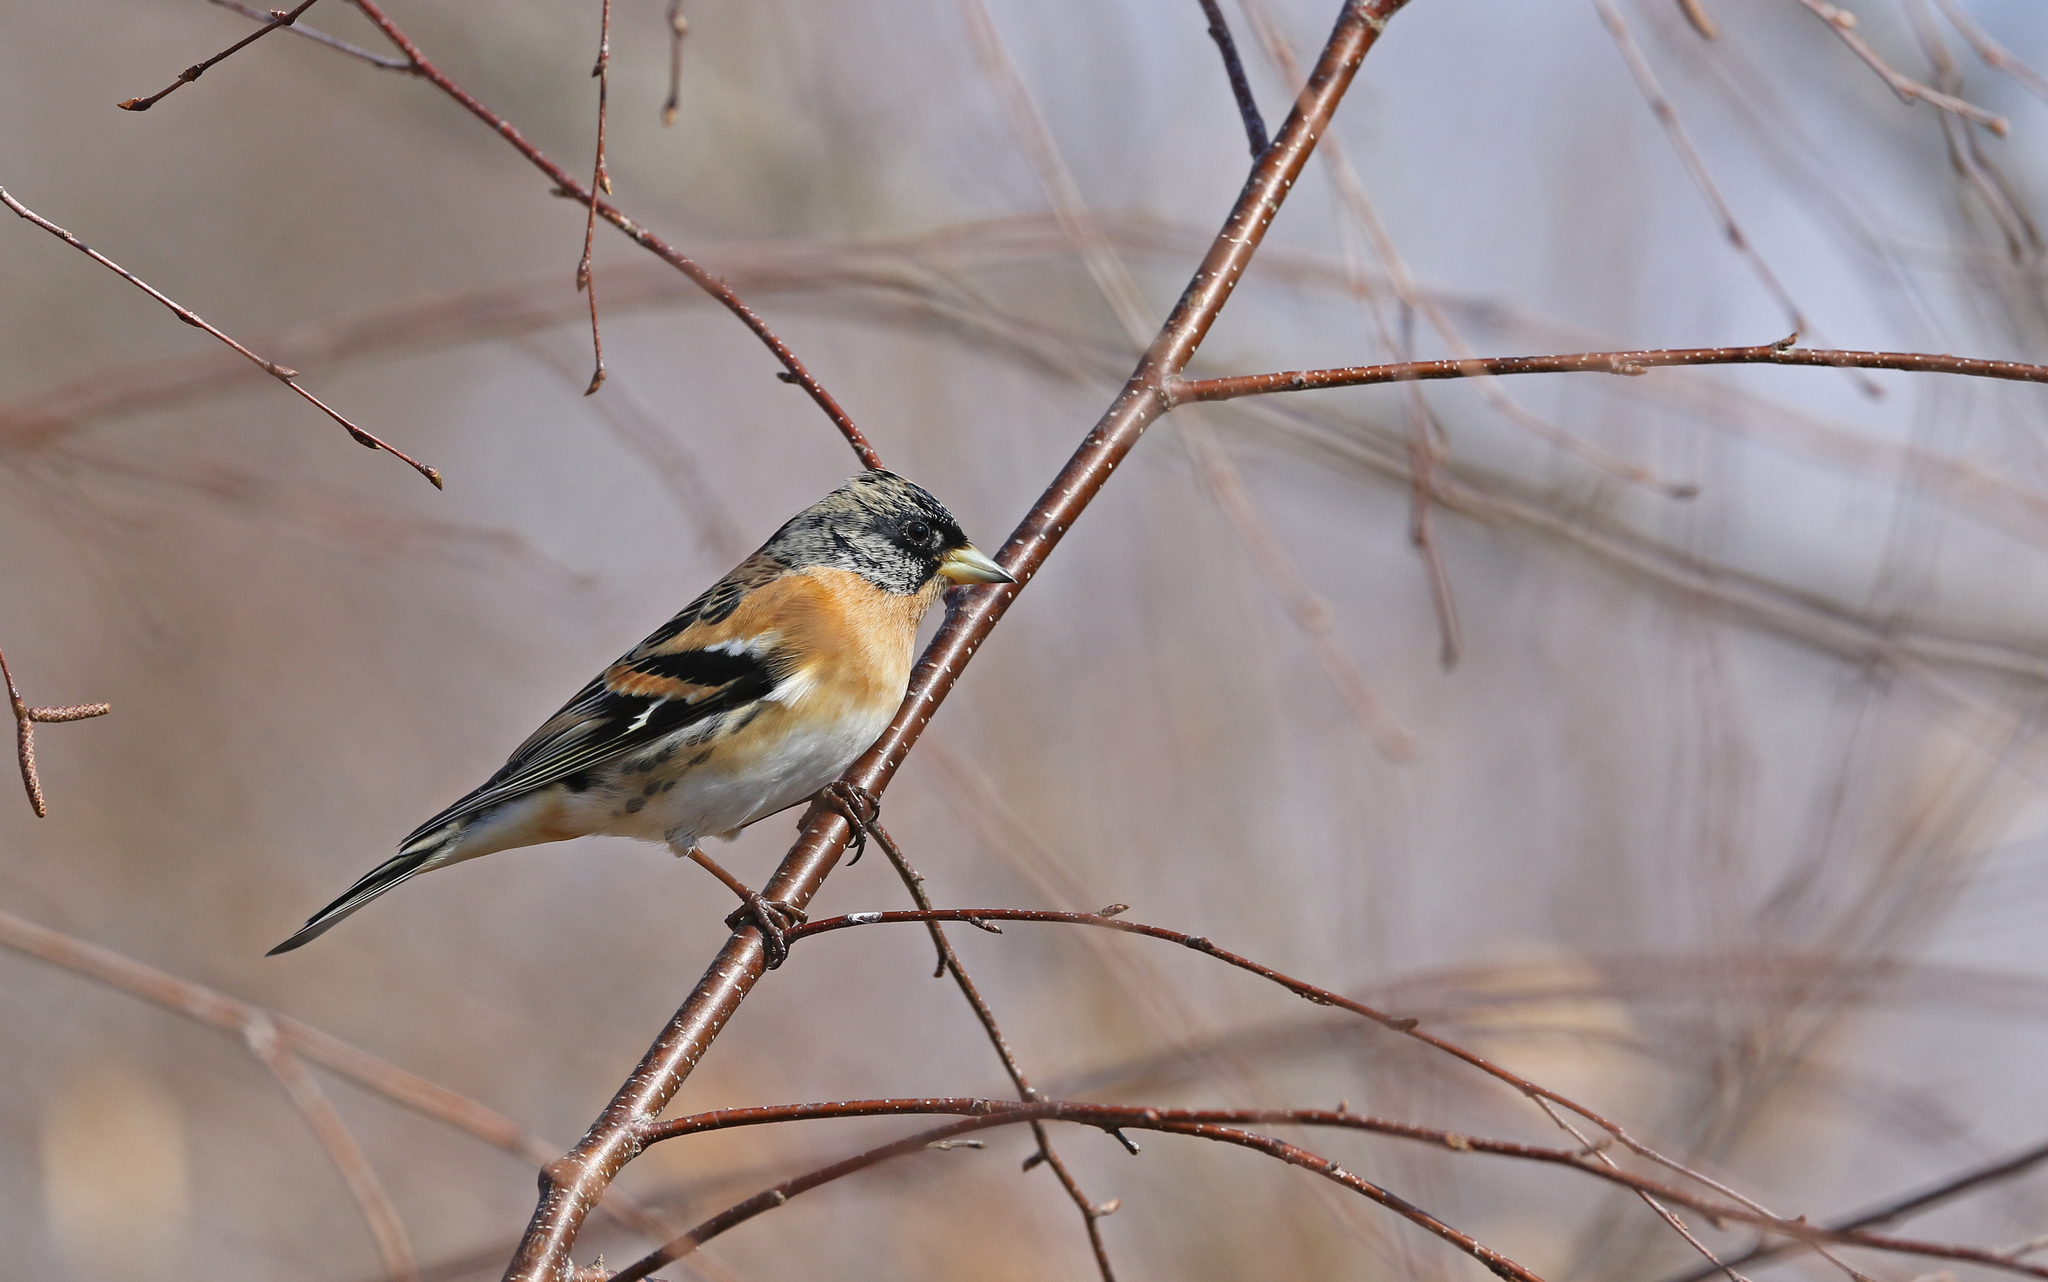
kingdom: Animalia
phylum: Chordata
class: Aves
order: Passeriformes
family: Fringillidae
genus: Fringilla
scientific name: Fringilla montifringilla
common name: Brambling
